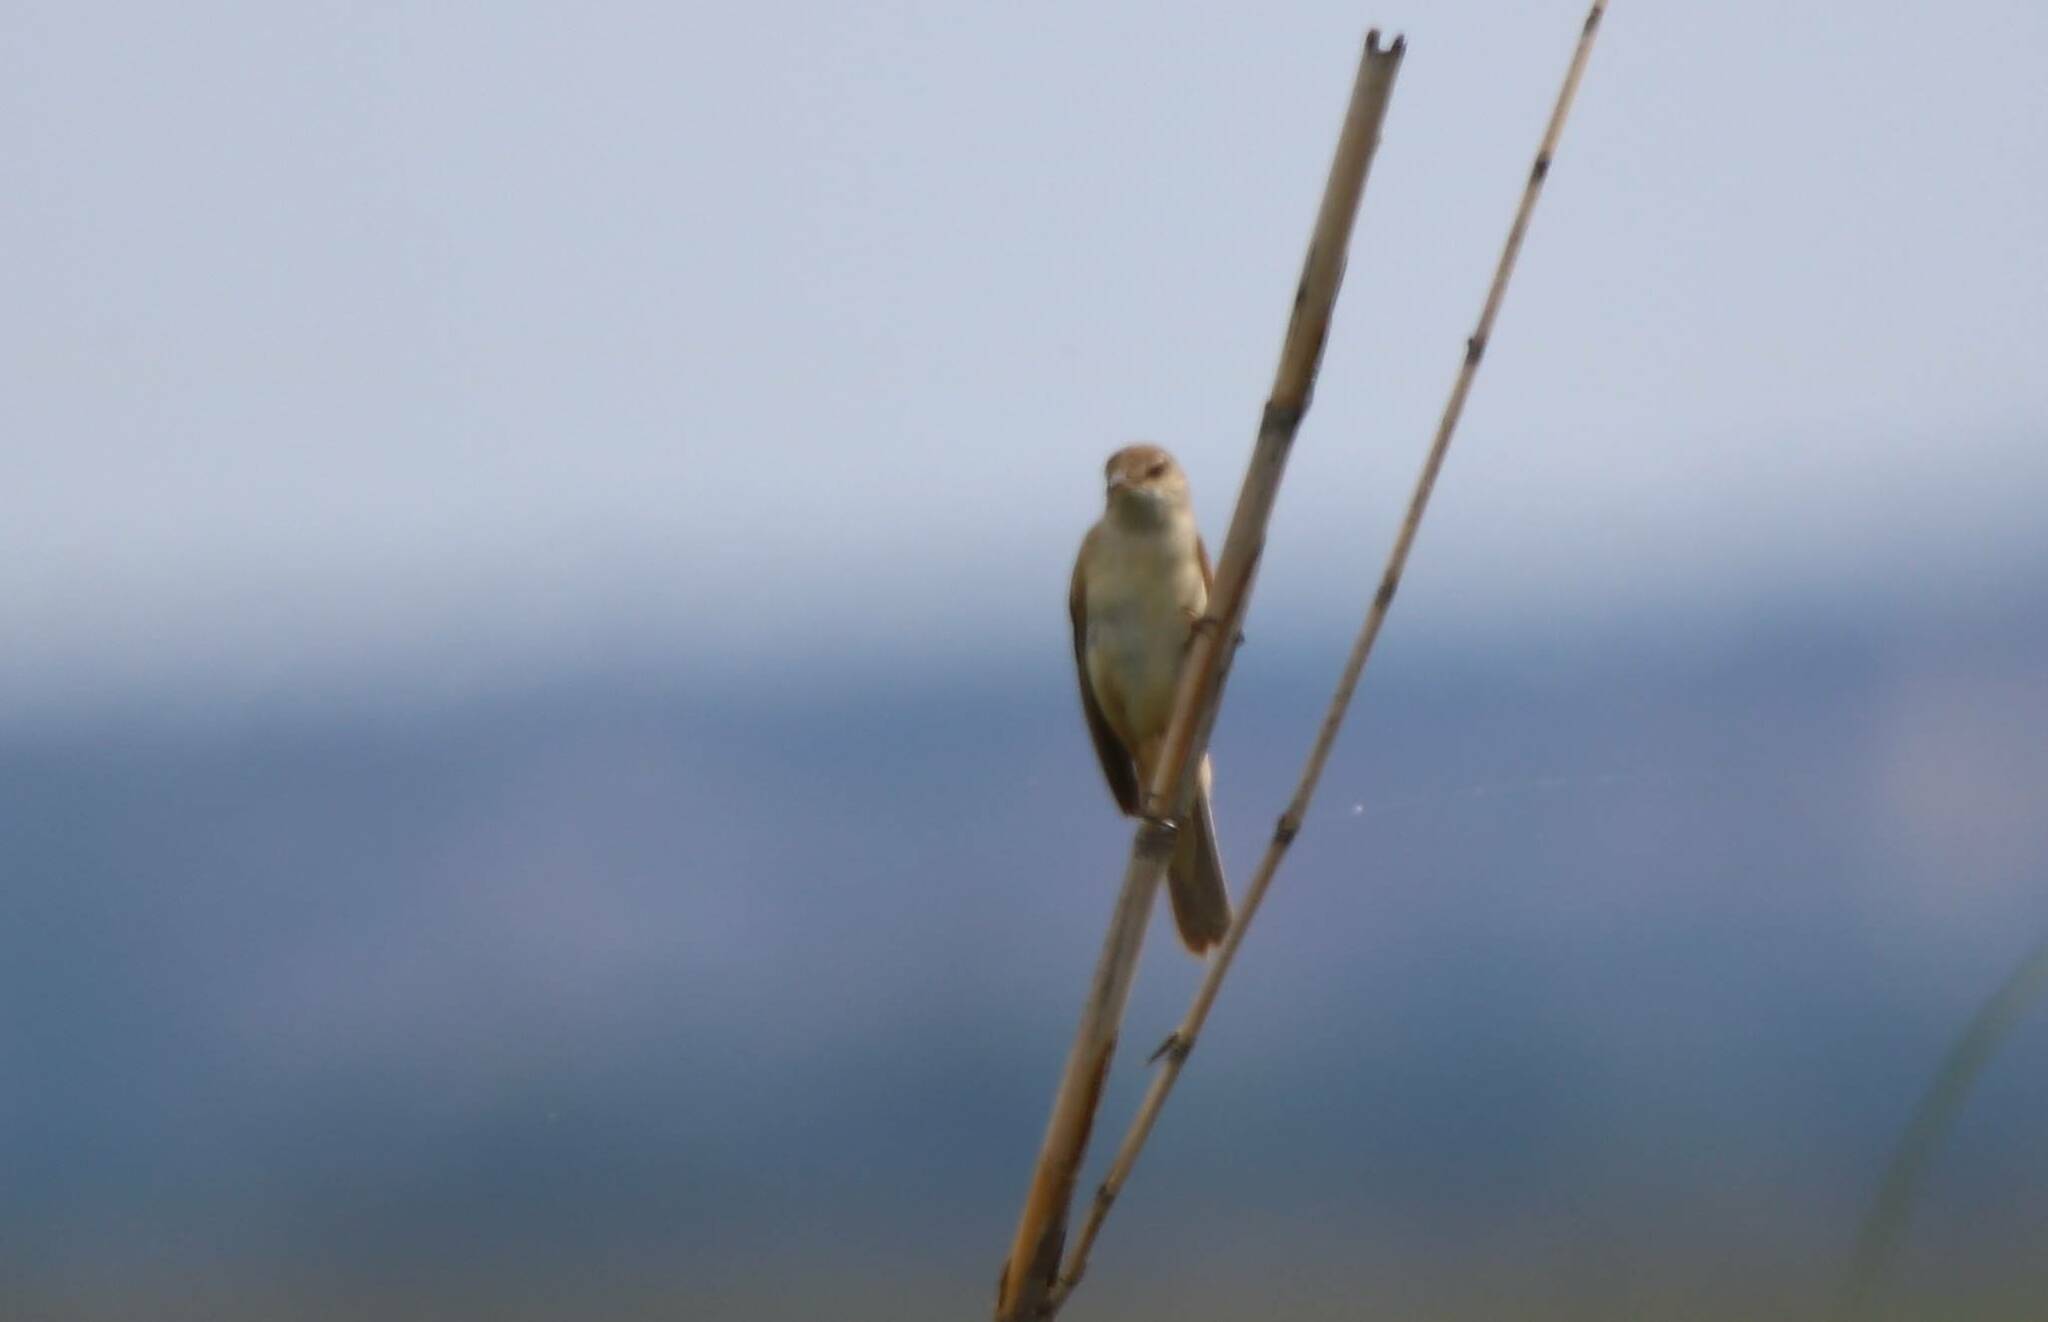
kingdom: Animalia
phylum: Chordata
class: Aves
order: Passeriformes
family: Acrocephalidae
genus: Acrocephalus
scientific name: Acrocephalus arundinaceus
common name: Great reed warbler
